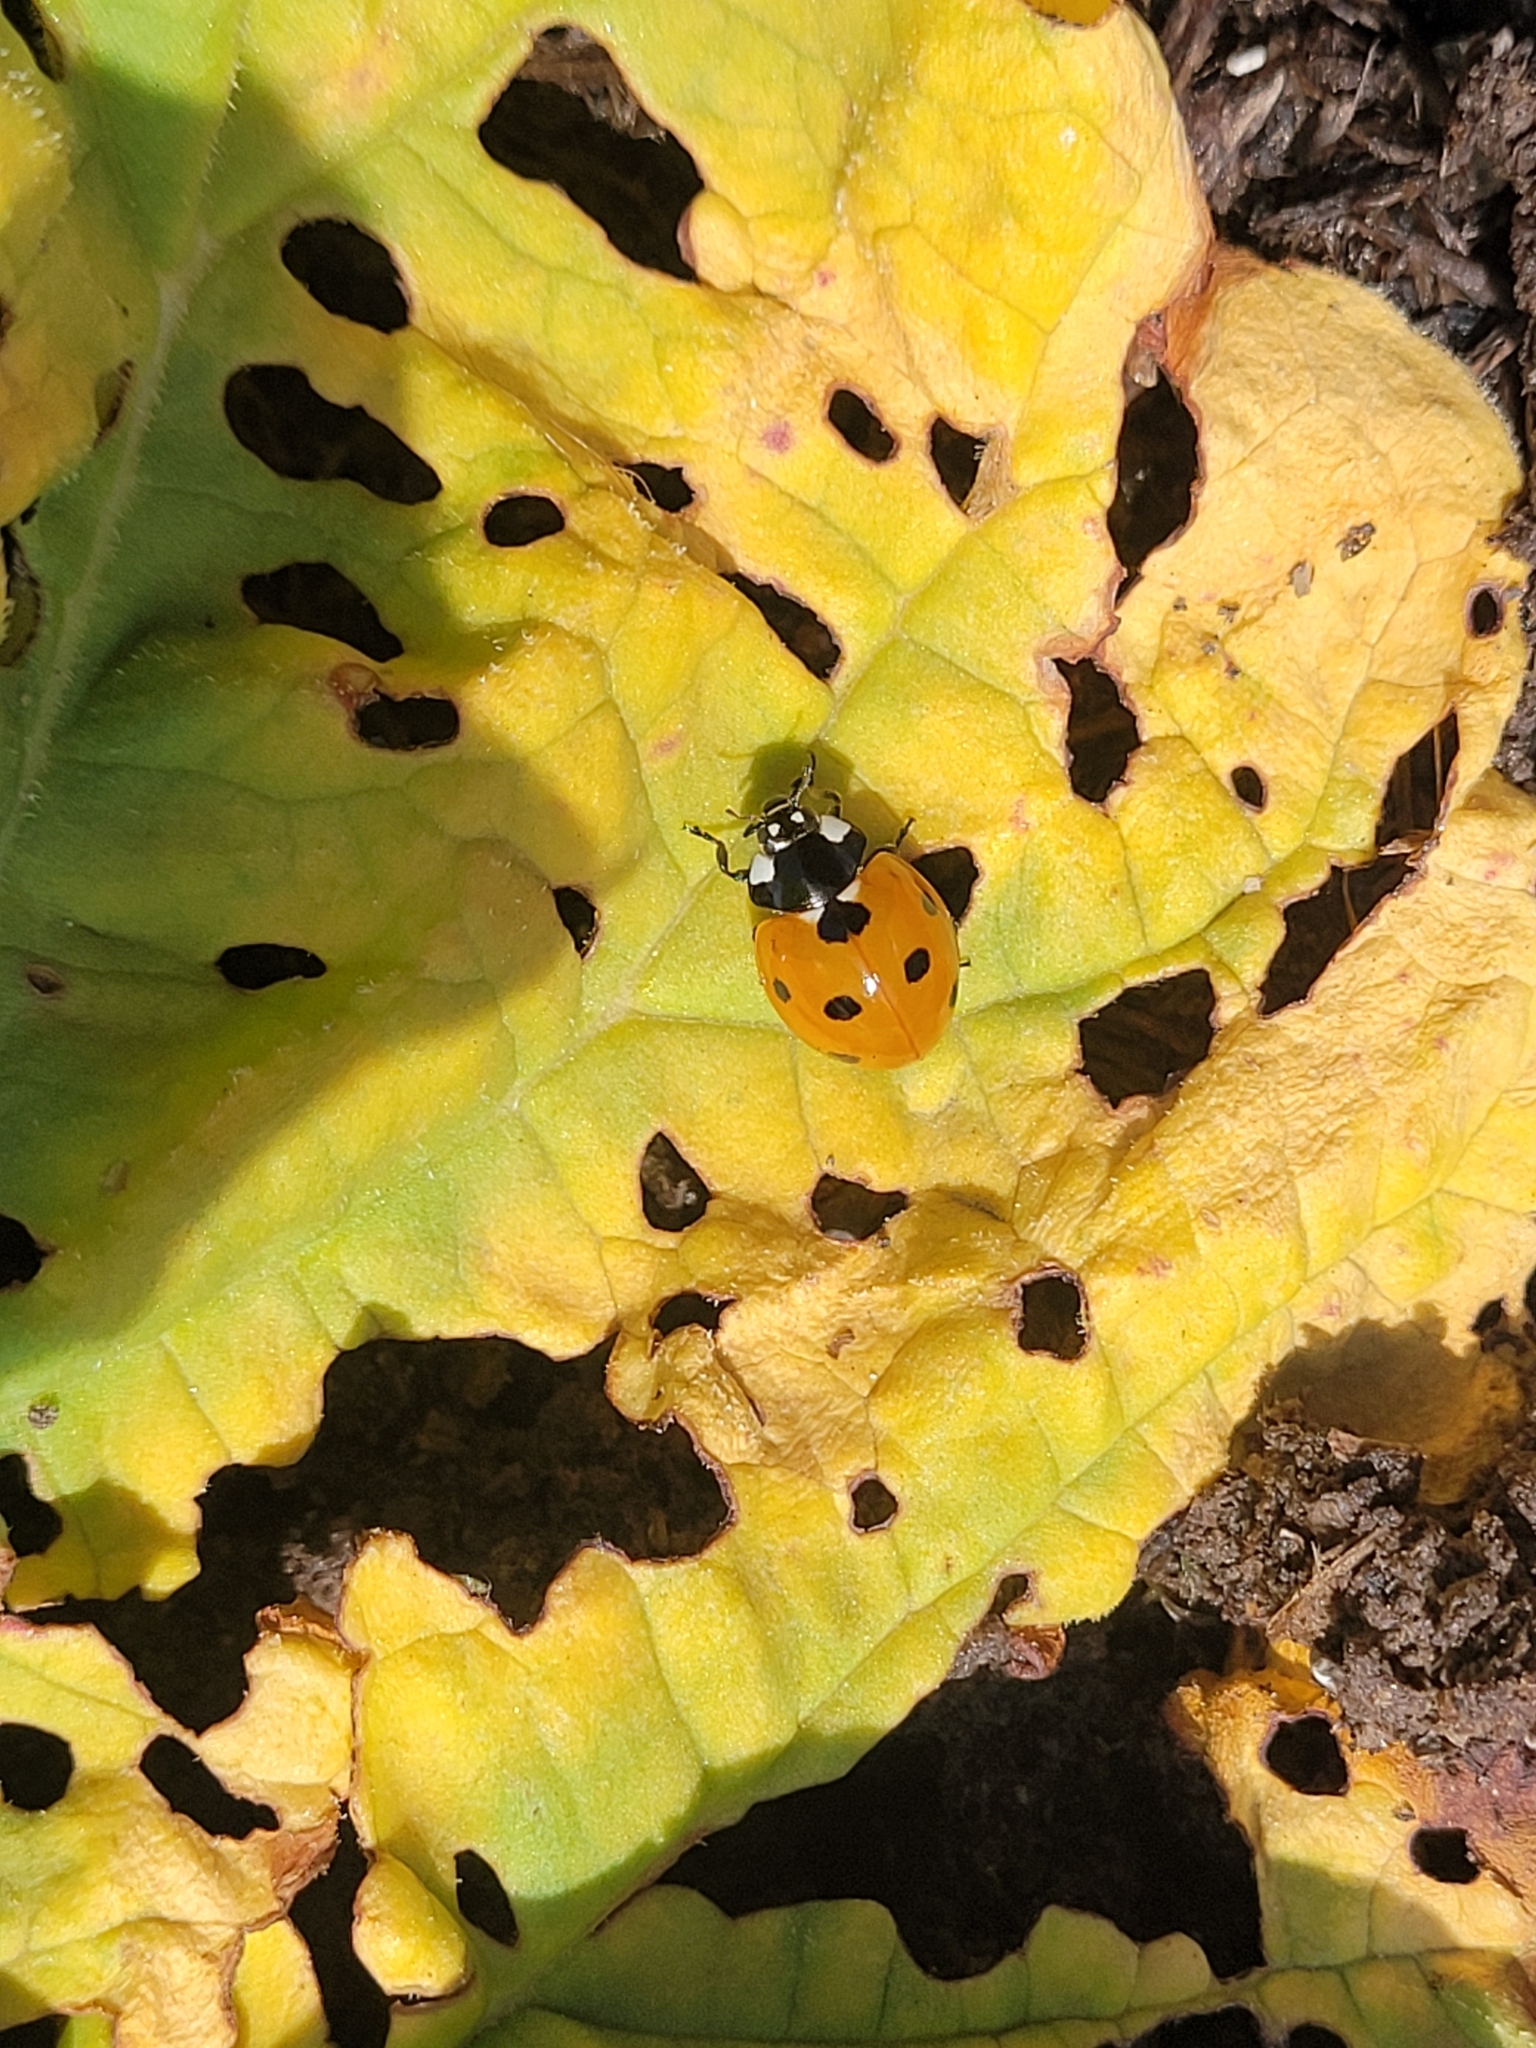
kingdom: Animalia
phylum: Arthropoda
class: Insecta
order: Coleoptera
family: Coccinellidae
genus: Coccinella
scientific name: Coccinella septempunctata
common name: Sevenspotted lady beetle
